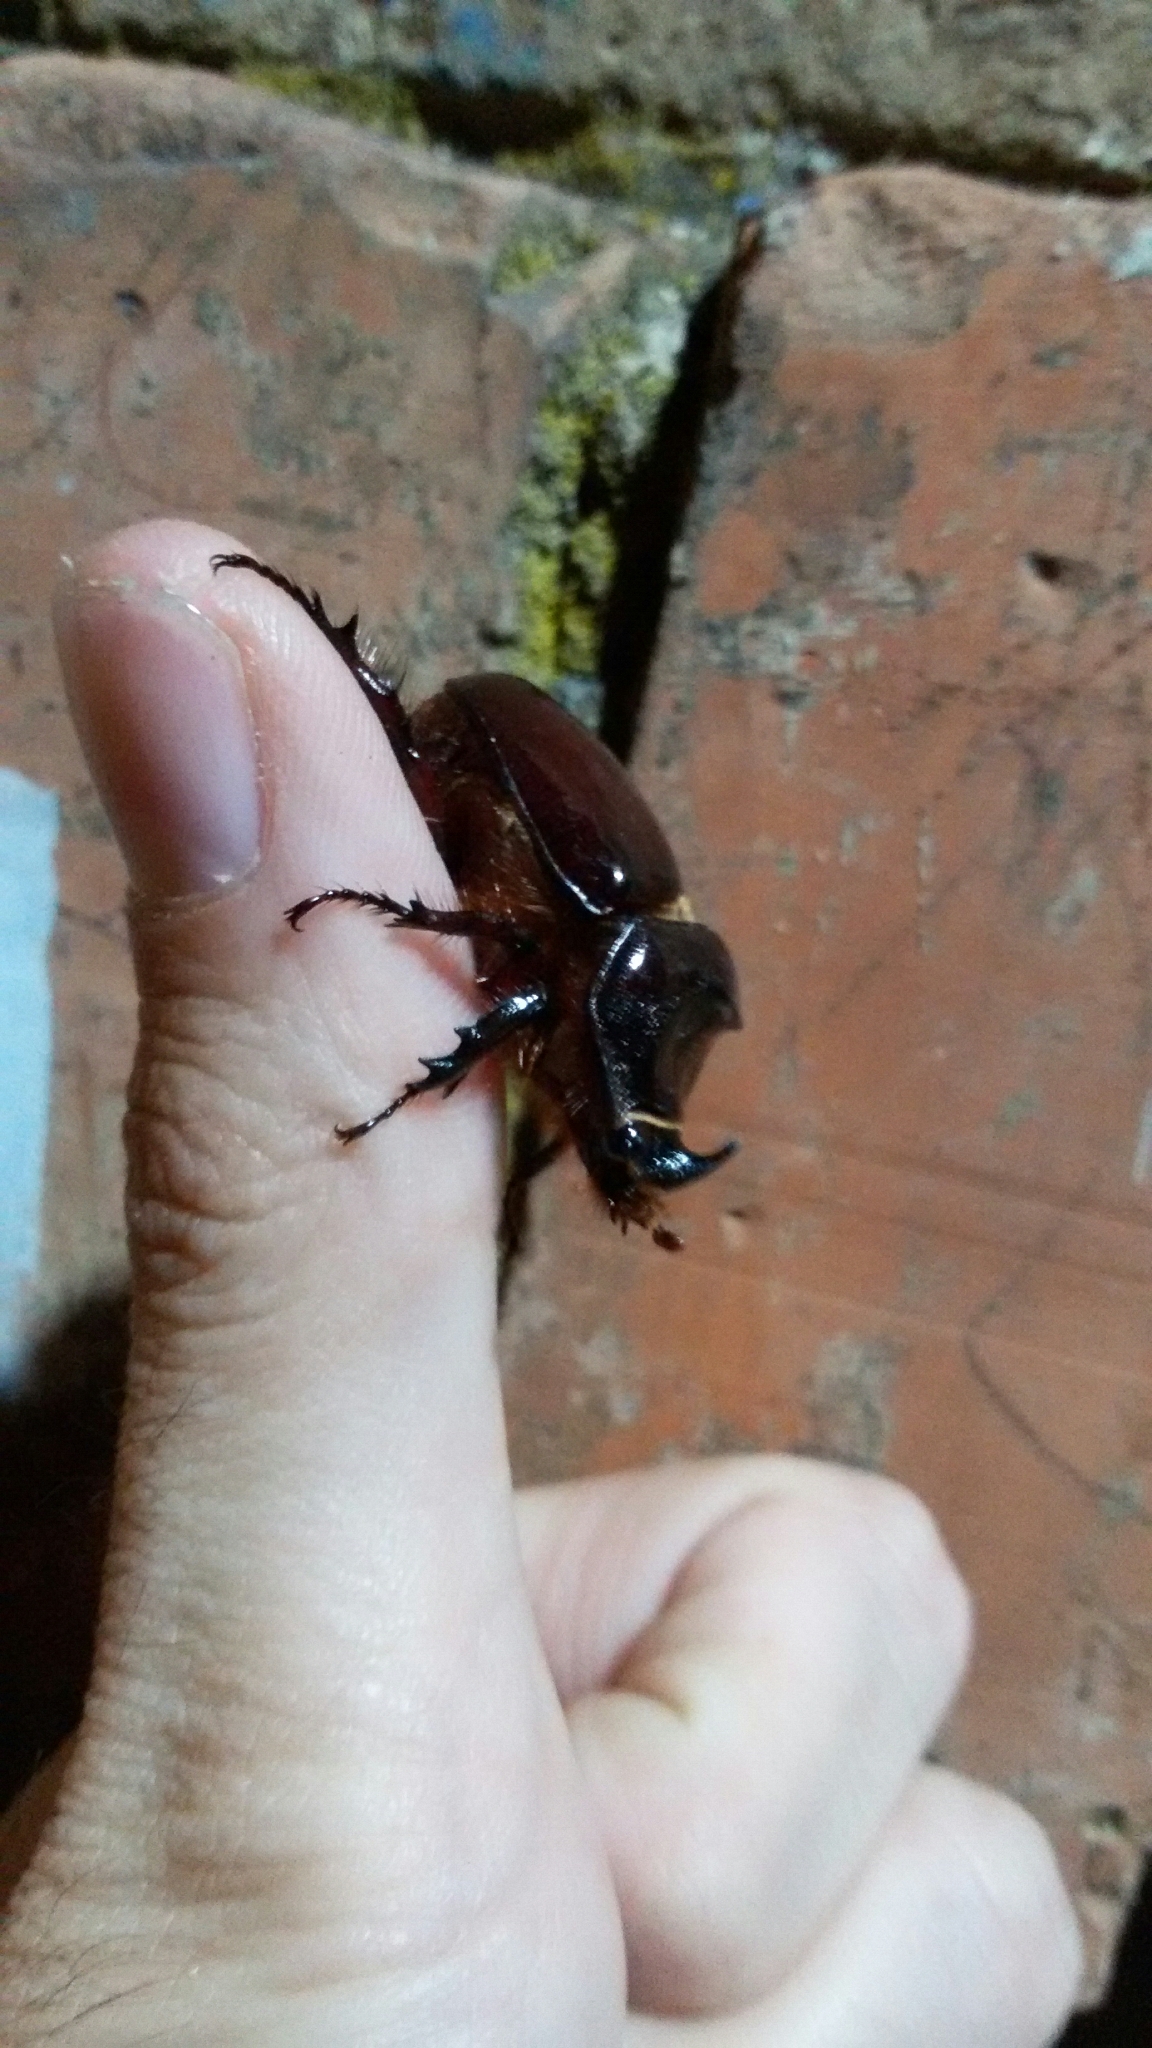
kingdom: Animalia
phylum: Arthropoda
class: Insecta
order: Coleoptera
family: Scarabaeidae
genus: Oryctes
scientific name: Oryctes nasicornis
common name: European rhinoceros beetle
